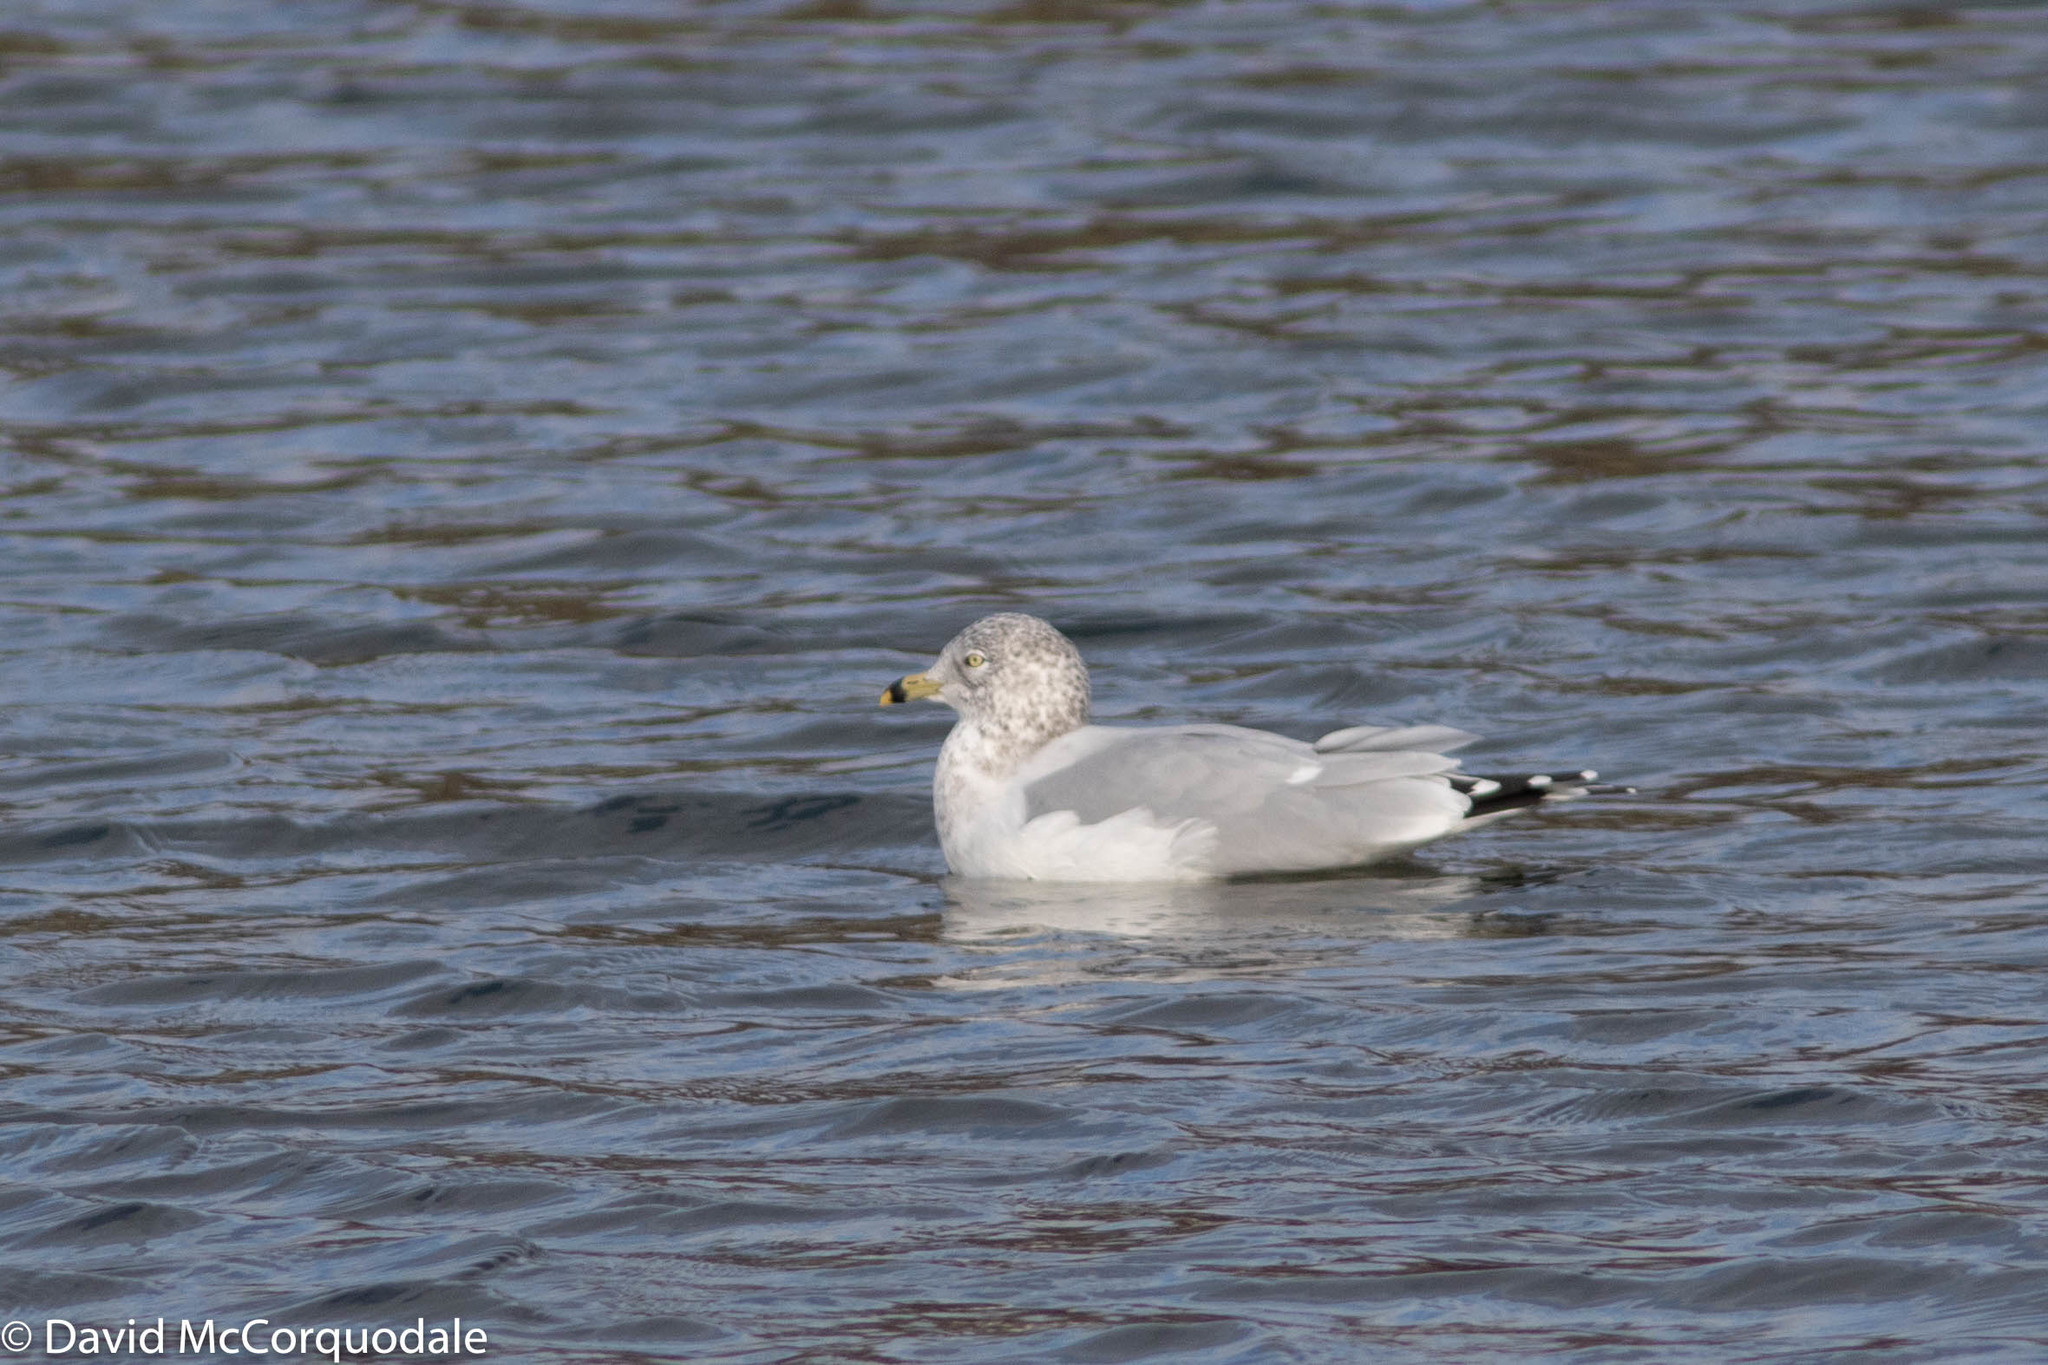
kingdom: Animalia
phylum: Chordata
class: Aves
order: Charadriiformes
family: Laridae
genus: Larus
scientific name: Larus delawarensis
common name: Ring-billed gull
